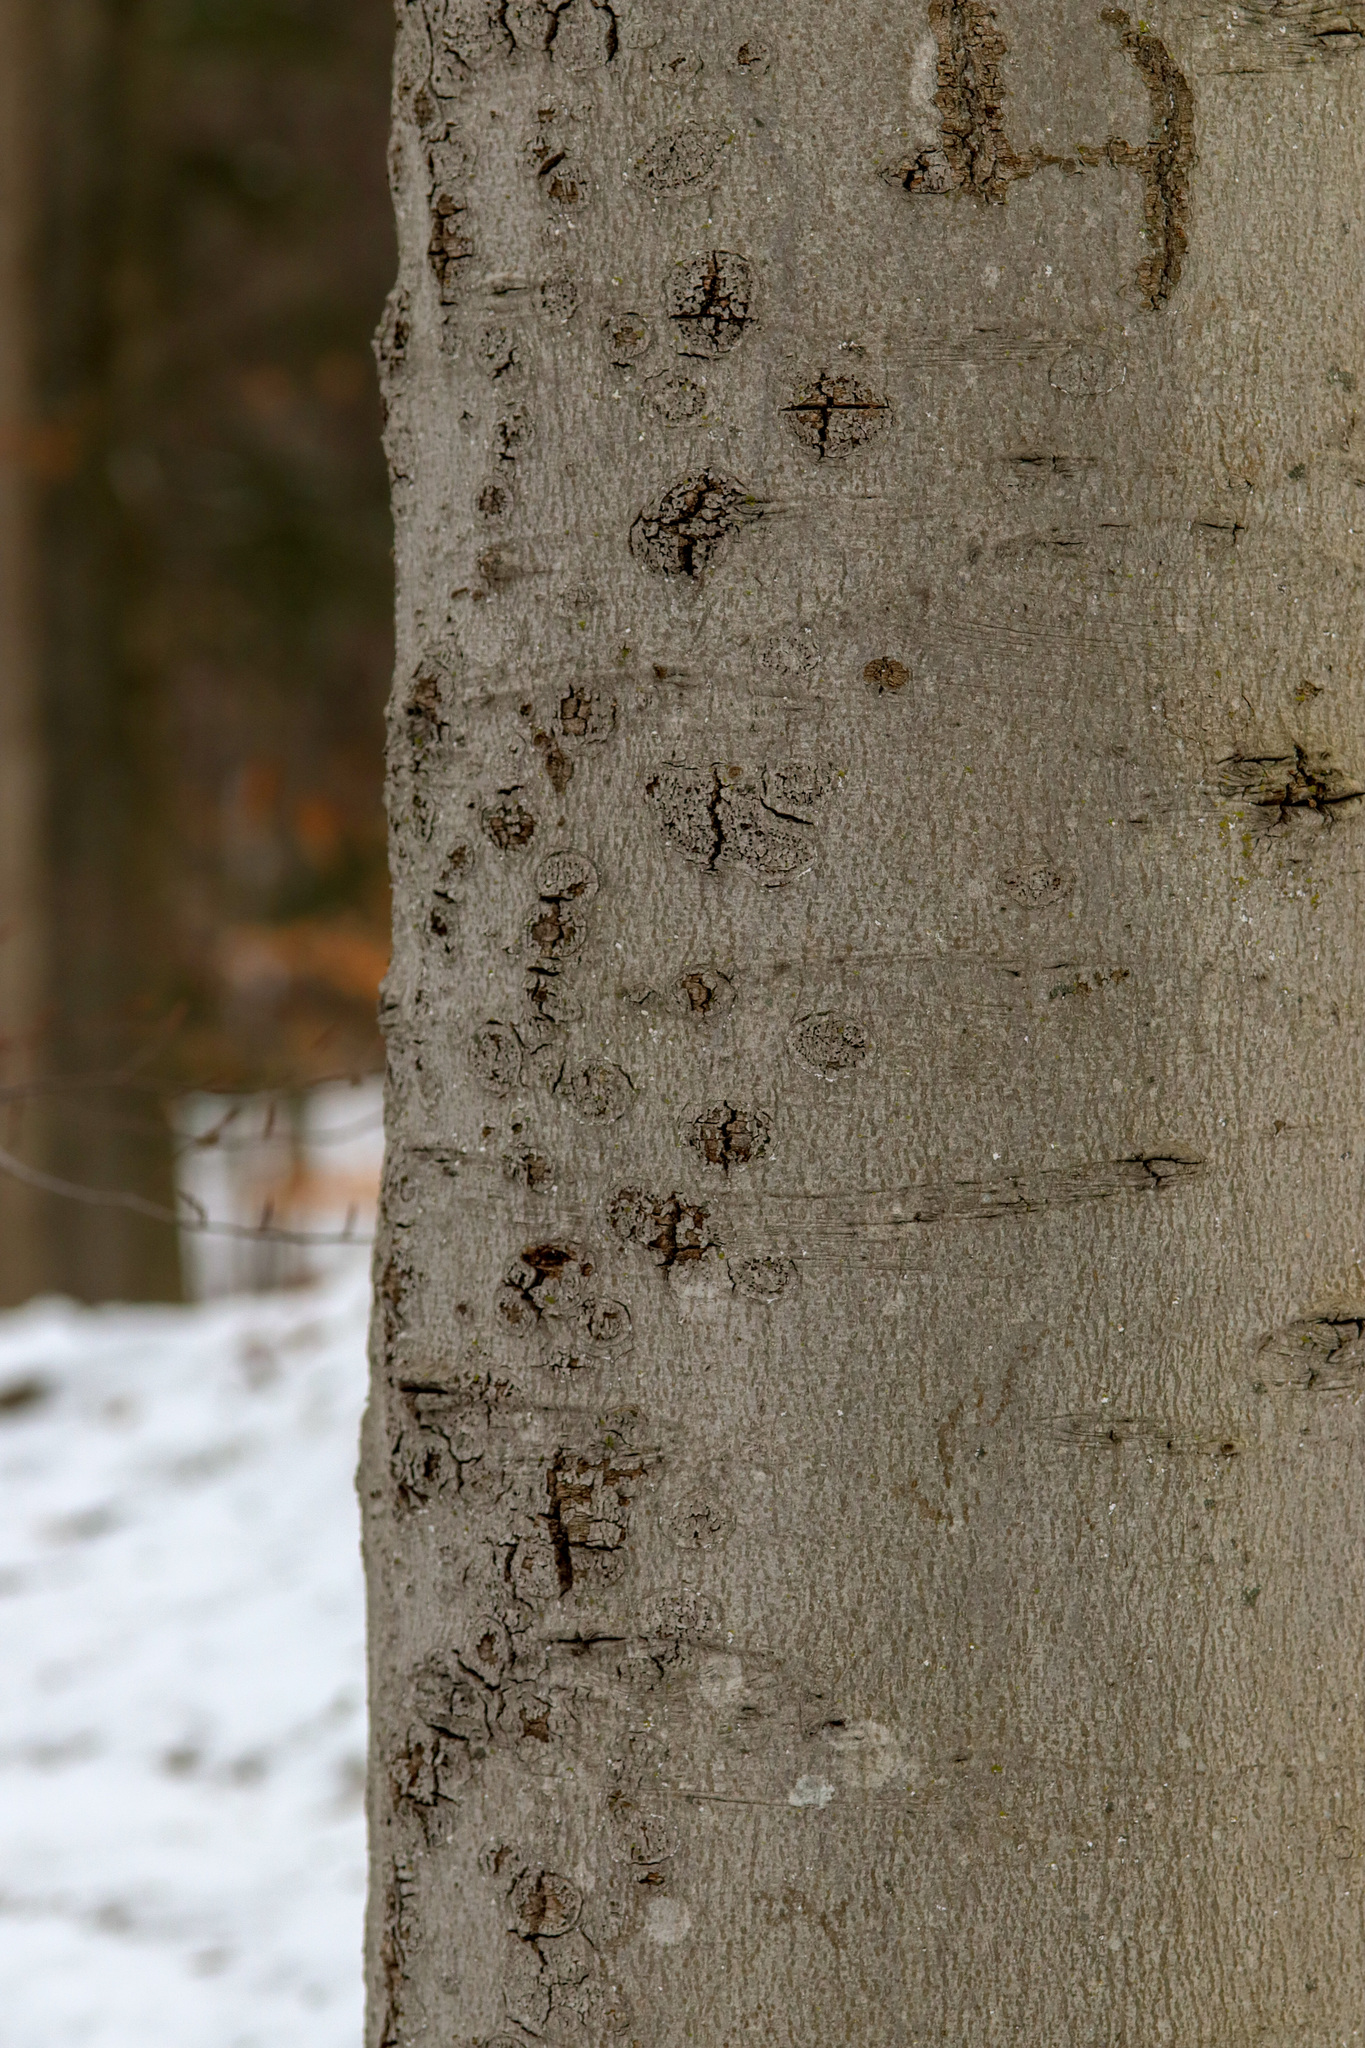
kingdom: Plantae
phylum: Tracheophyta
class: Magnoliopsida
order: Fagales
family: Fagaceae
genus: Fagus
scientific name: Fagus grandifolia
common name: American beech
